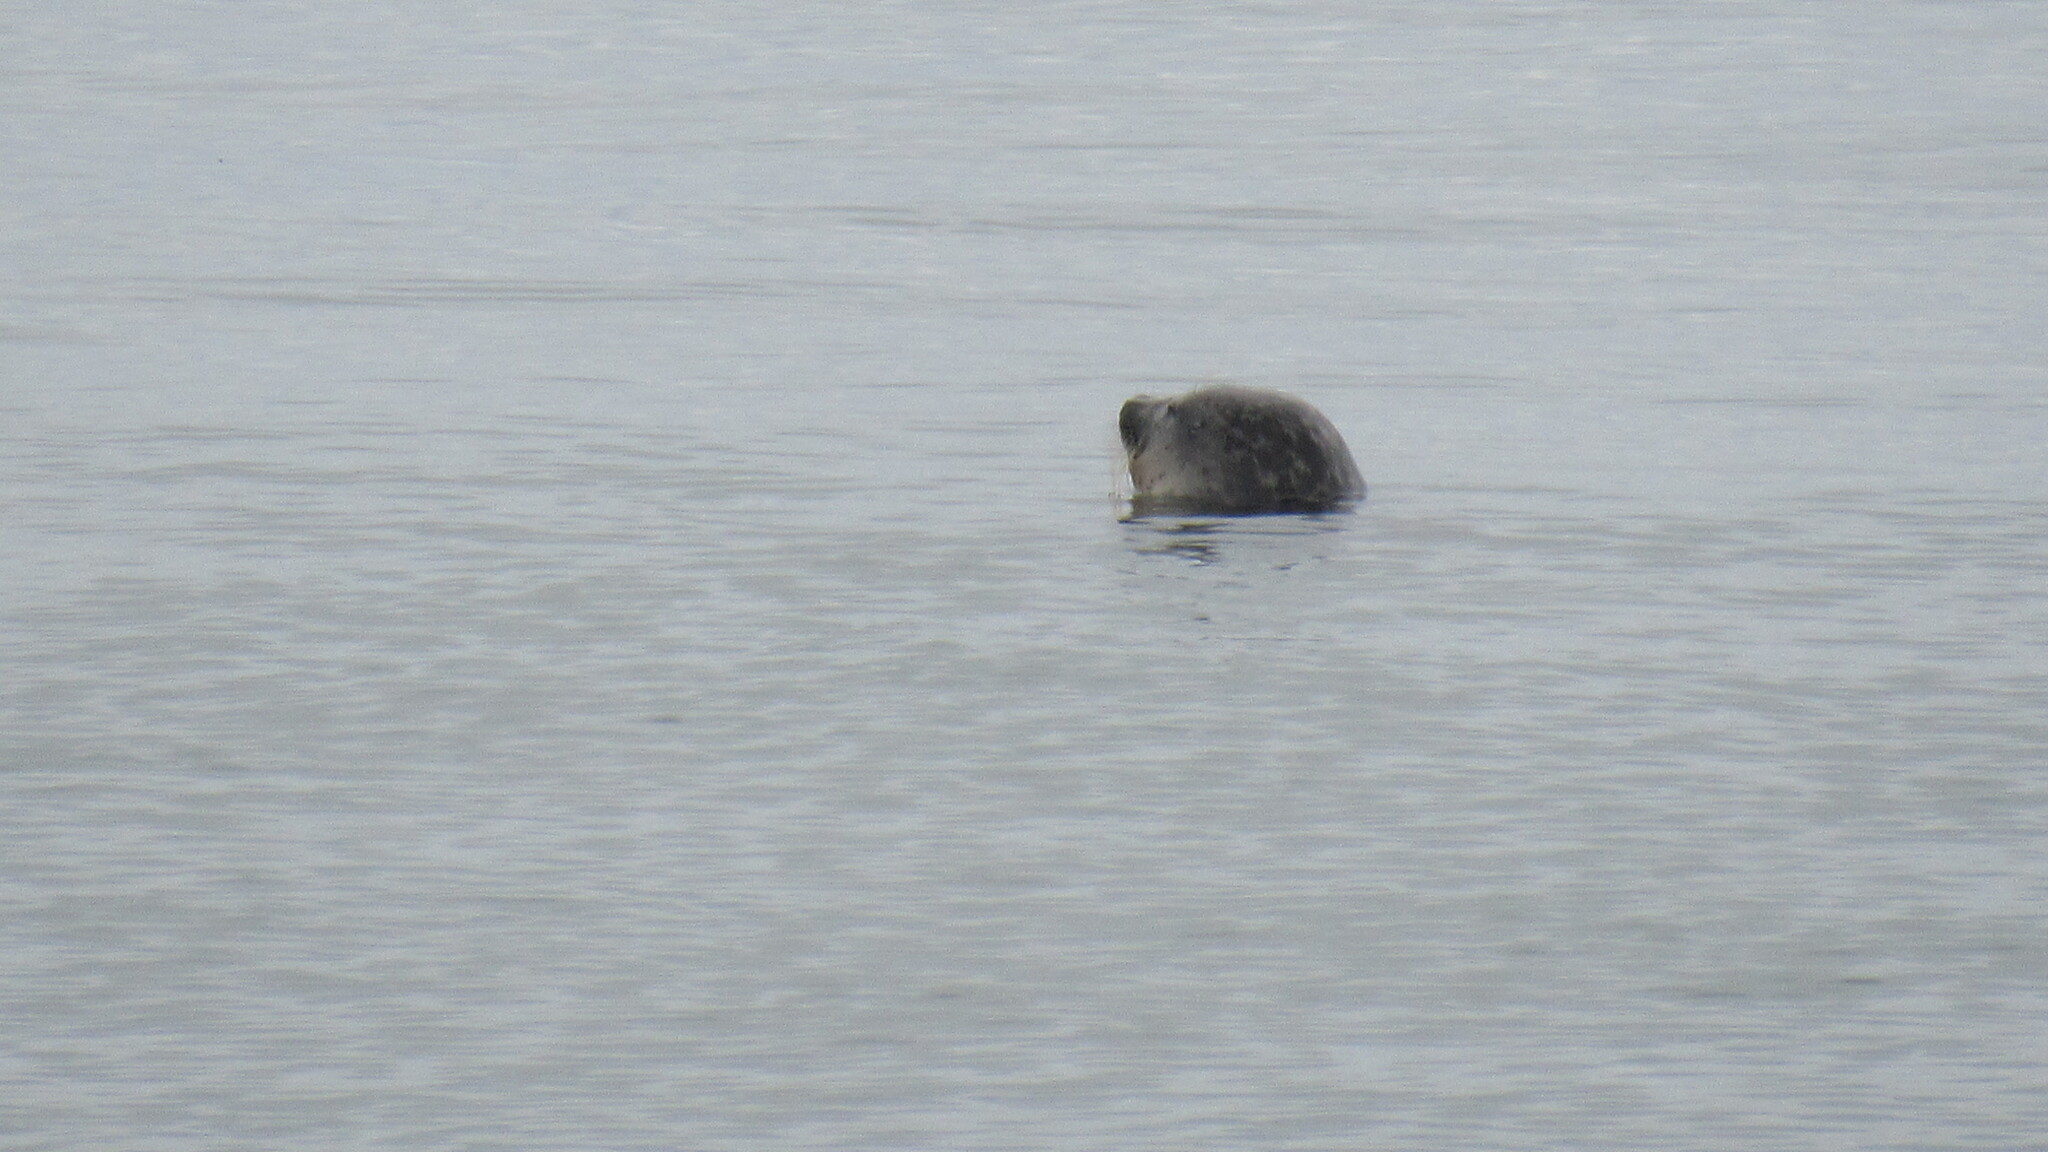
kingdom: Animalia
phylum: Chordata
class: Mammalia
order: Carnivora
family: Phocidae
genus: Pusa
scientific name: Pusa hispida
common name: Ringed seal
